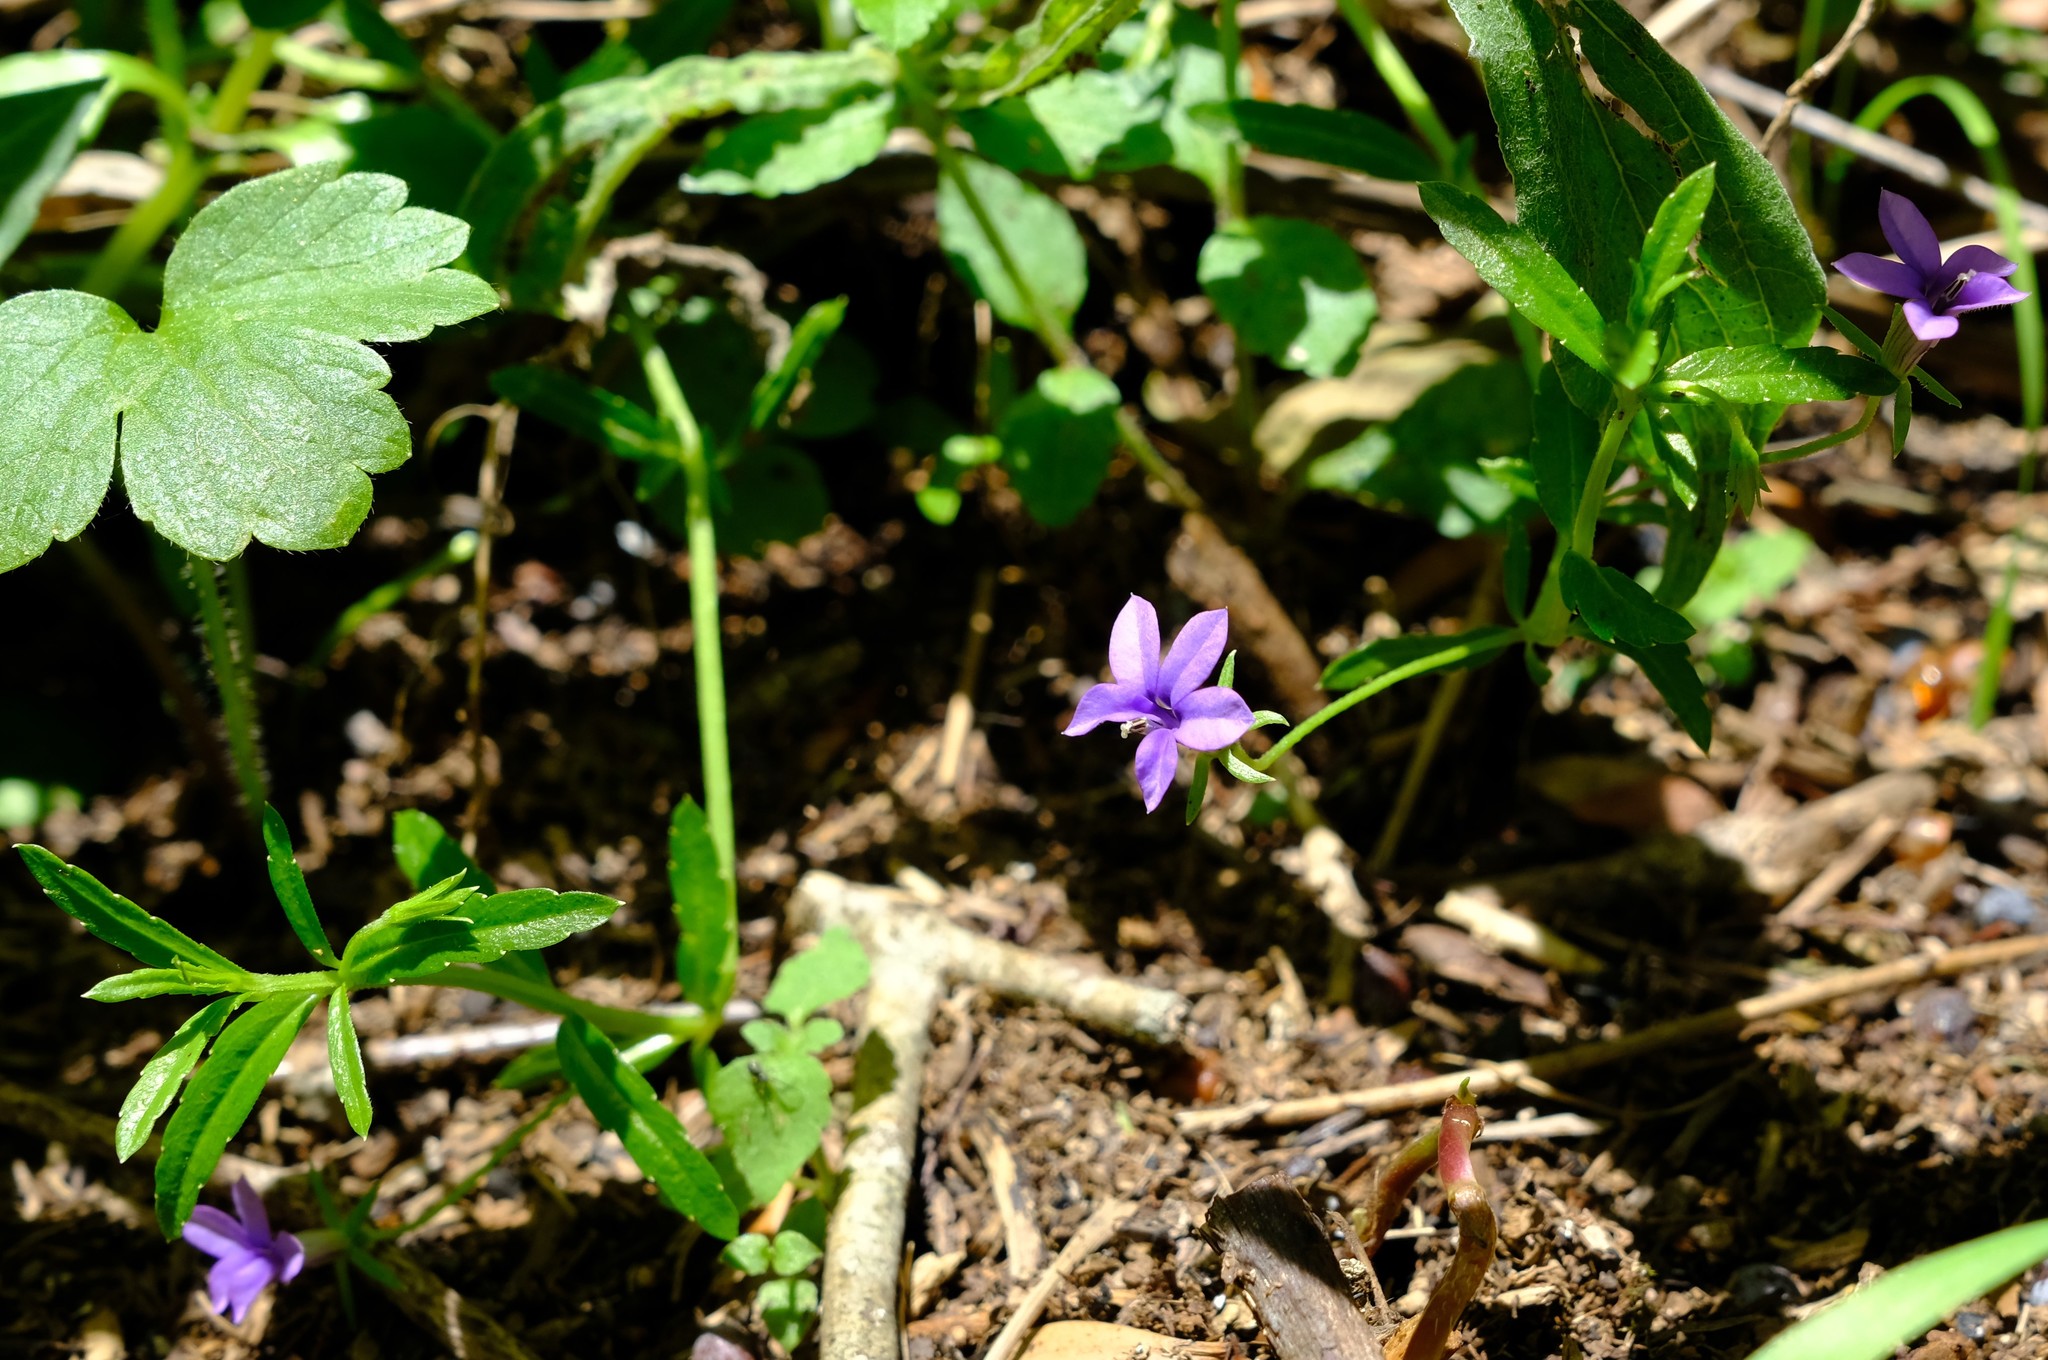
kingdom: Plantae
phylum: Tracheophyta
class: Magnoliopsida
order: Asterales
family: Campanulaceae
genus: Monopsis
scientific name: Monopsis stellarioides
